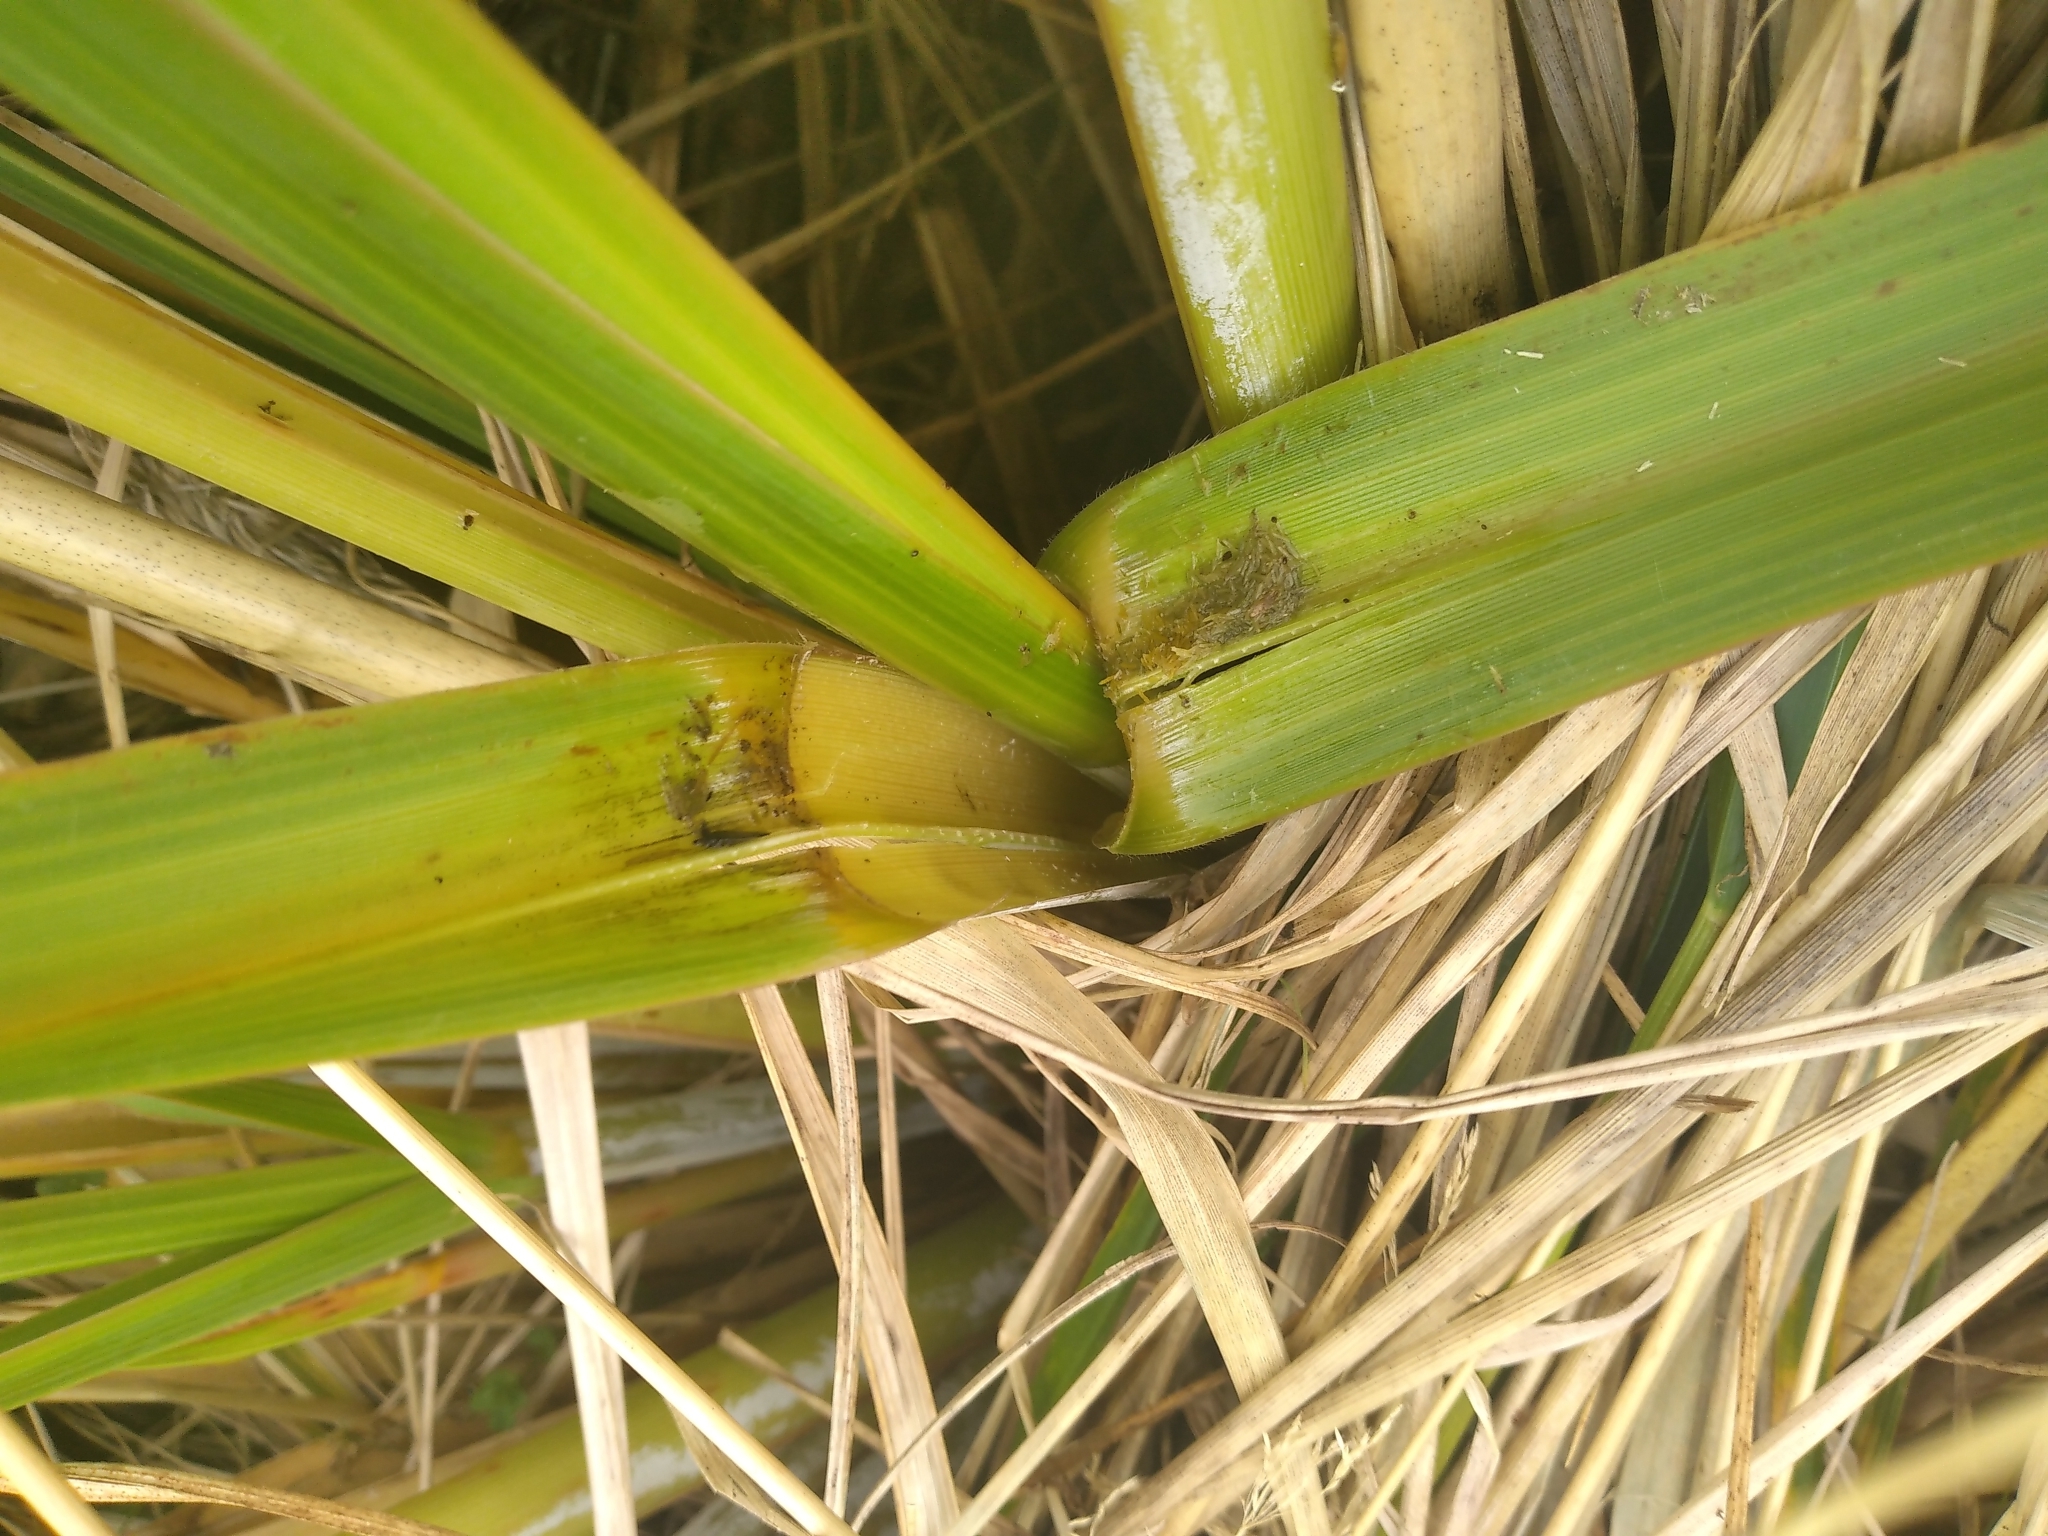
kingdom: Plantae
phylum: Tracheophyta
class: Liliopsida
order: Poales
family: Poaceae
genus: Austroderia
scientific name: Austroderia fulvida
